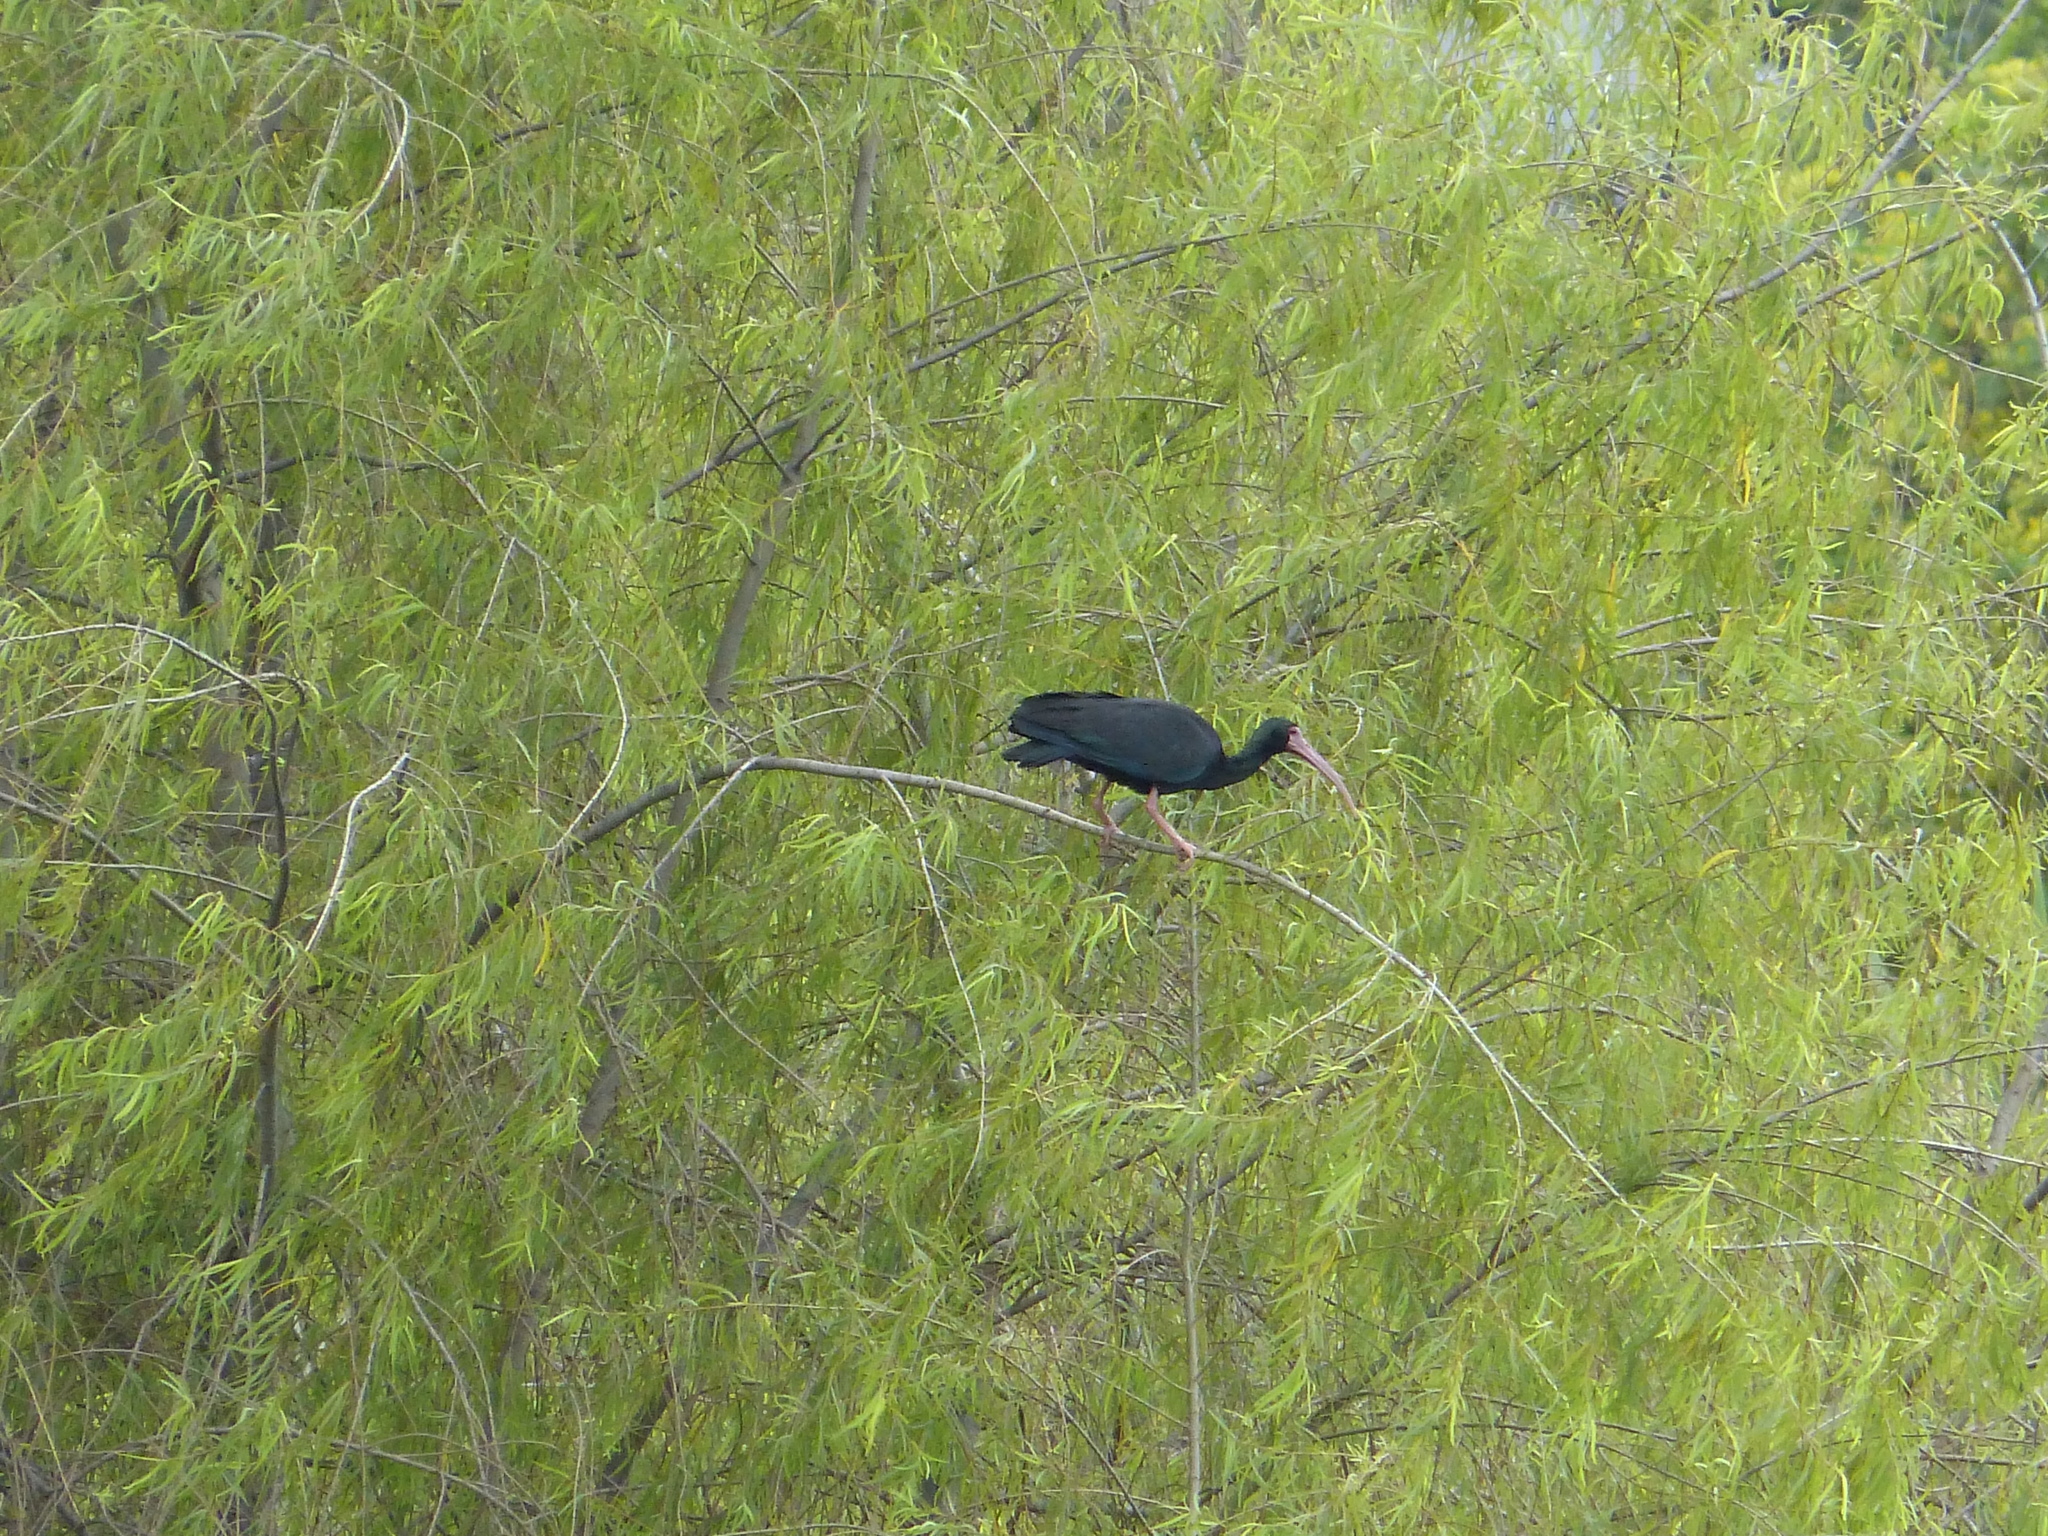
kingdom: Animalia
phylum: Chordata
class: Aves
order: Pelecaniformes
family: Threskiornithidae
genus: Phimosus
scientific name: Phimosus infuscatus
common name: Bare-faced ibis
